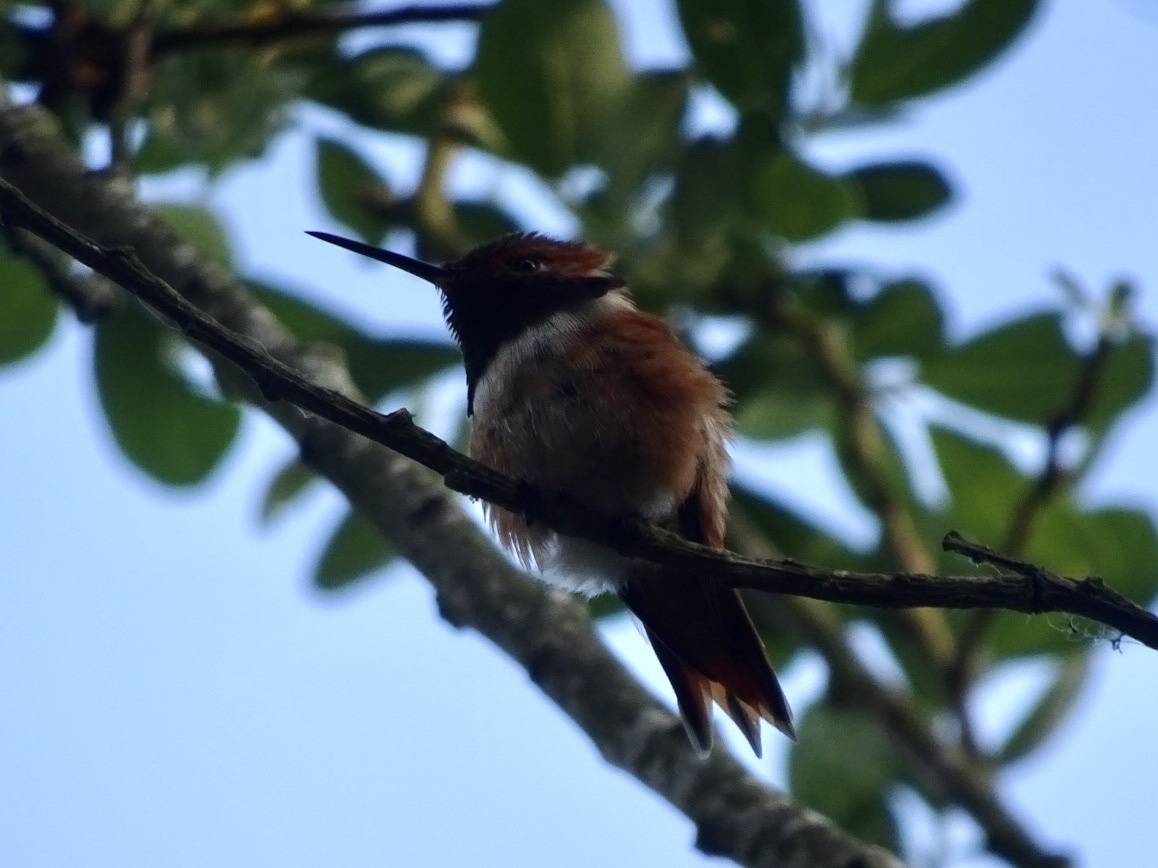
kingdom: Animalia
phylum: Chordata
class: Aves
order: Apodiformes
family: Trochilidae
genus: Selasphorus
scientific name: Selasphorus sasin
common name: Allen's hummingbird
